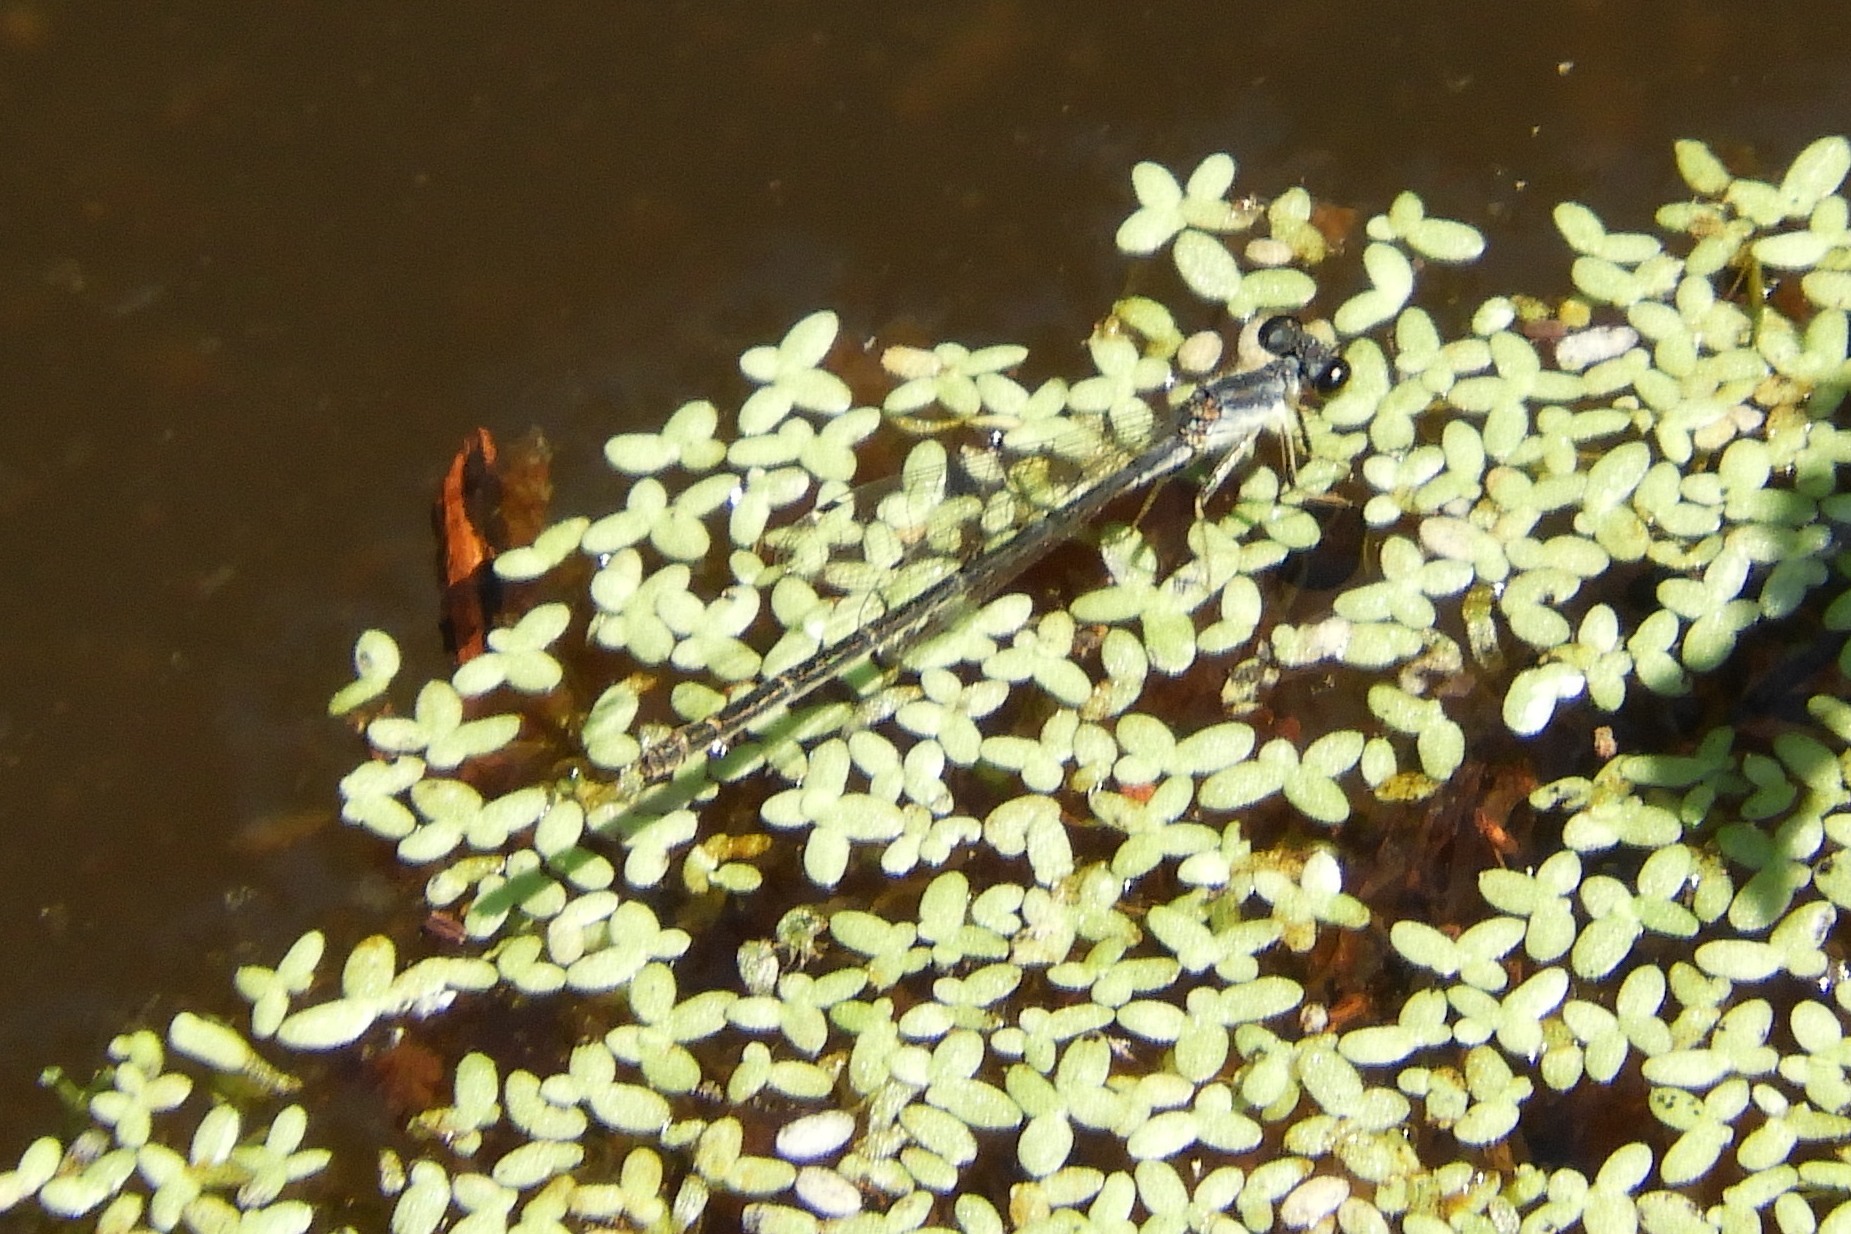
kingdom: Animalia
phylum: Arthropoda
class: Insecta
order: Odonata
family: Coenagrionidae
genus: Ischnura
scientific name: Ischnura posita
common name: Fragile forktail
